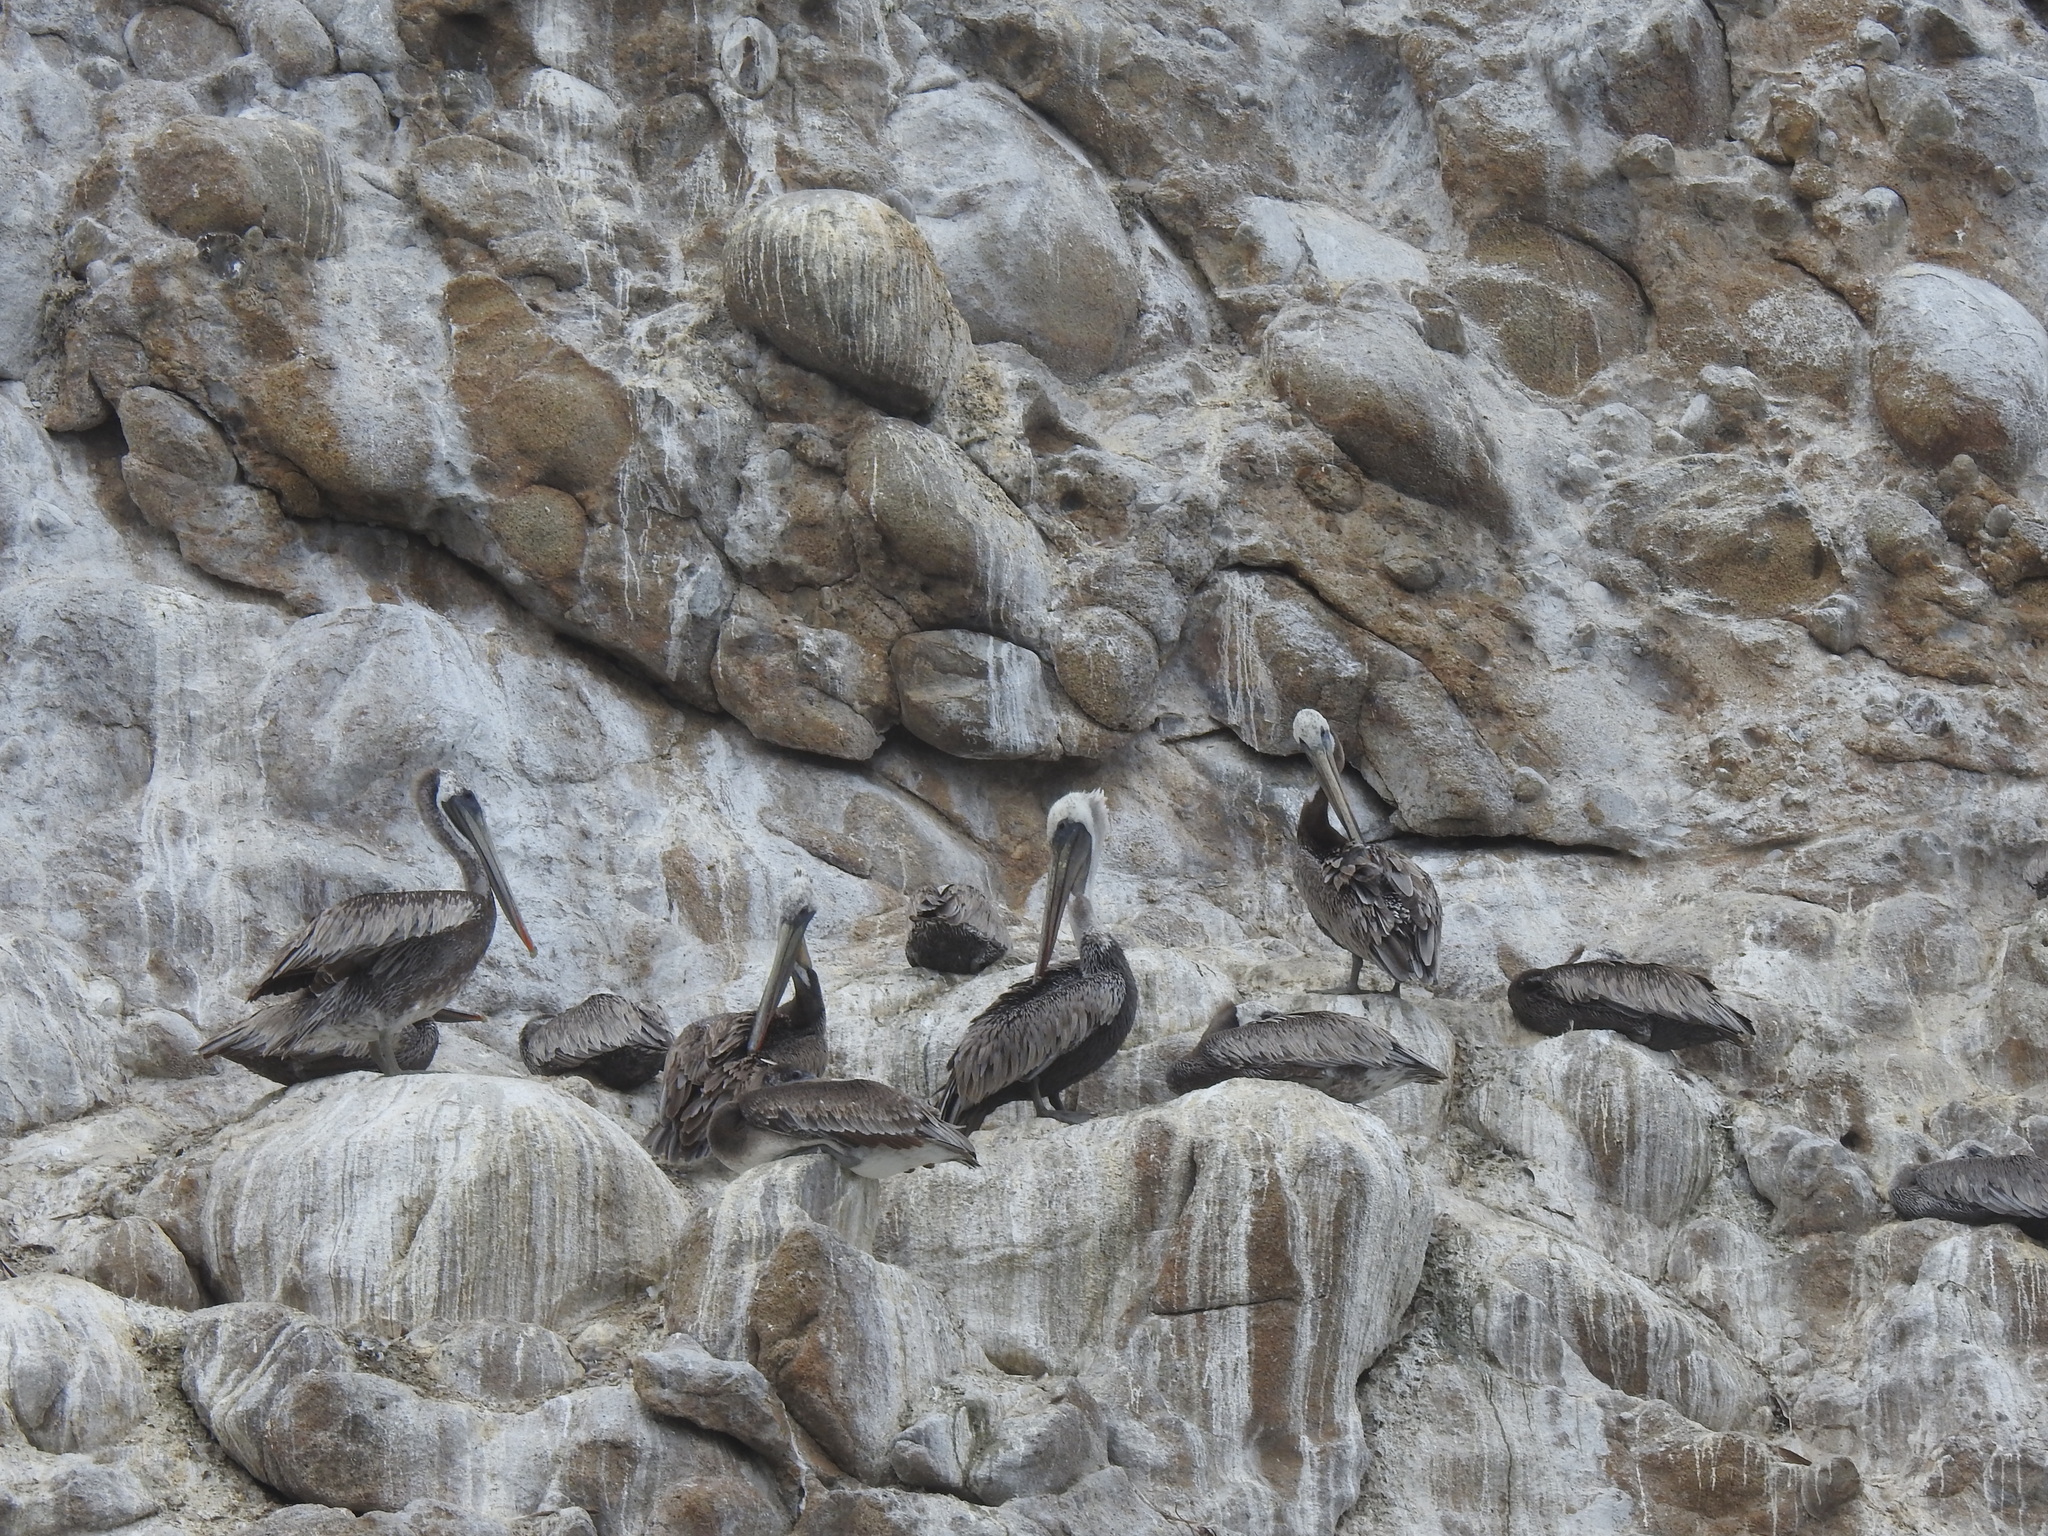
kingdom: Animalia
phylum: Chordata
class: Aves
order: Pelecaniformes
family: Pelecanidae
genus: Pelecanus
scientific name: Pelecanus occidentalis
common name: Brown pelican
